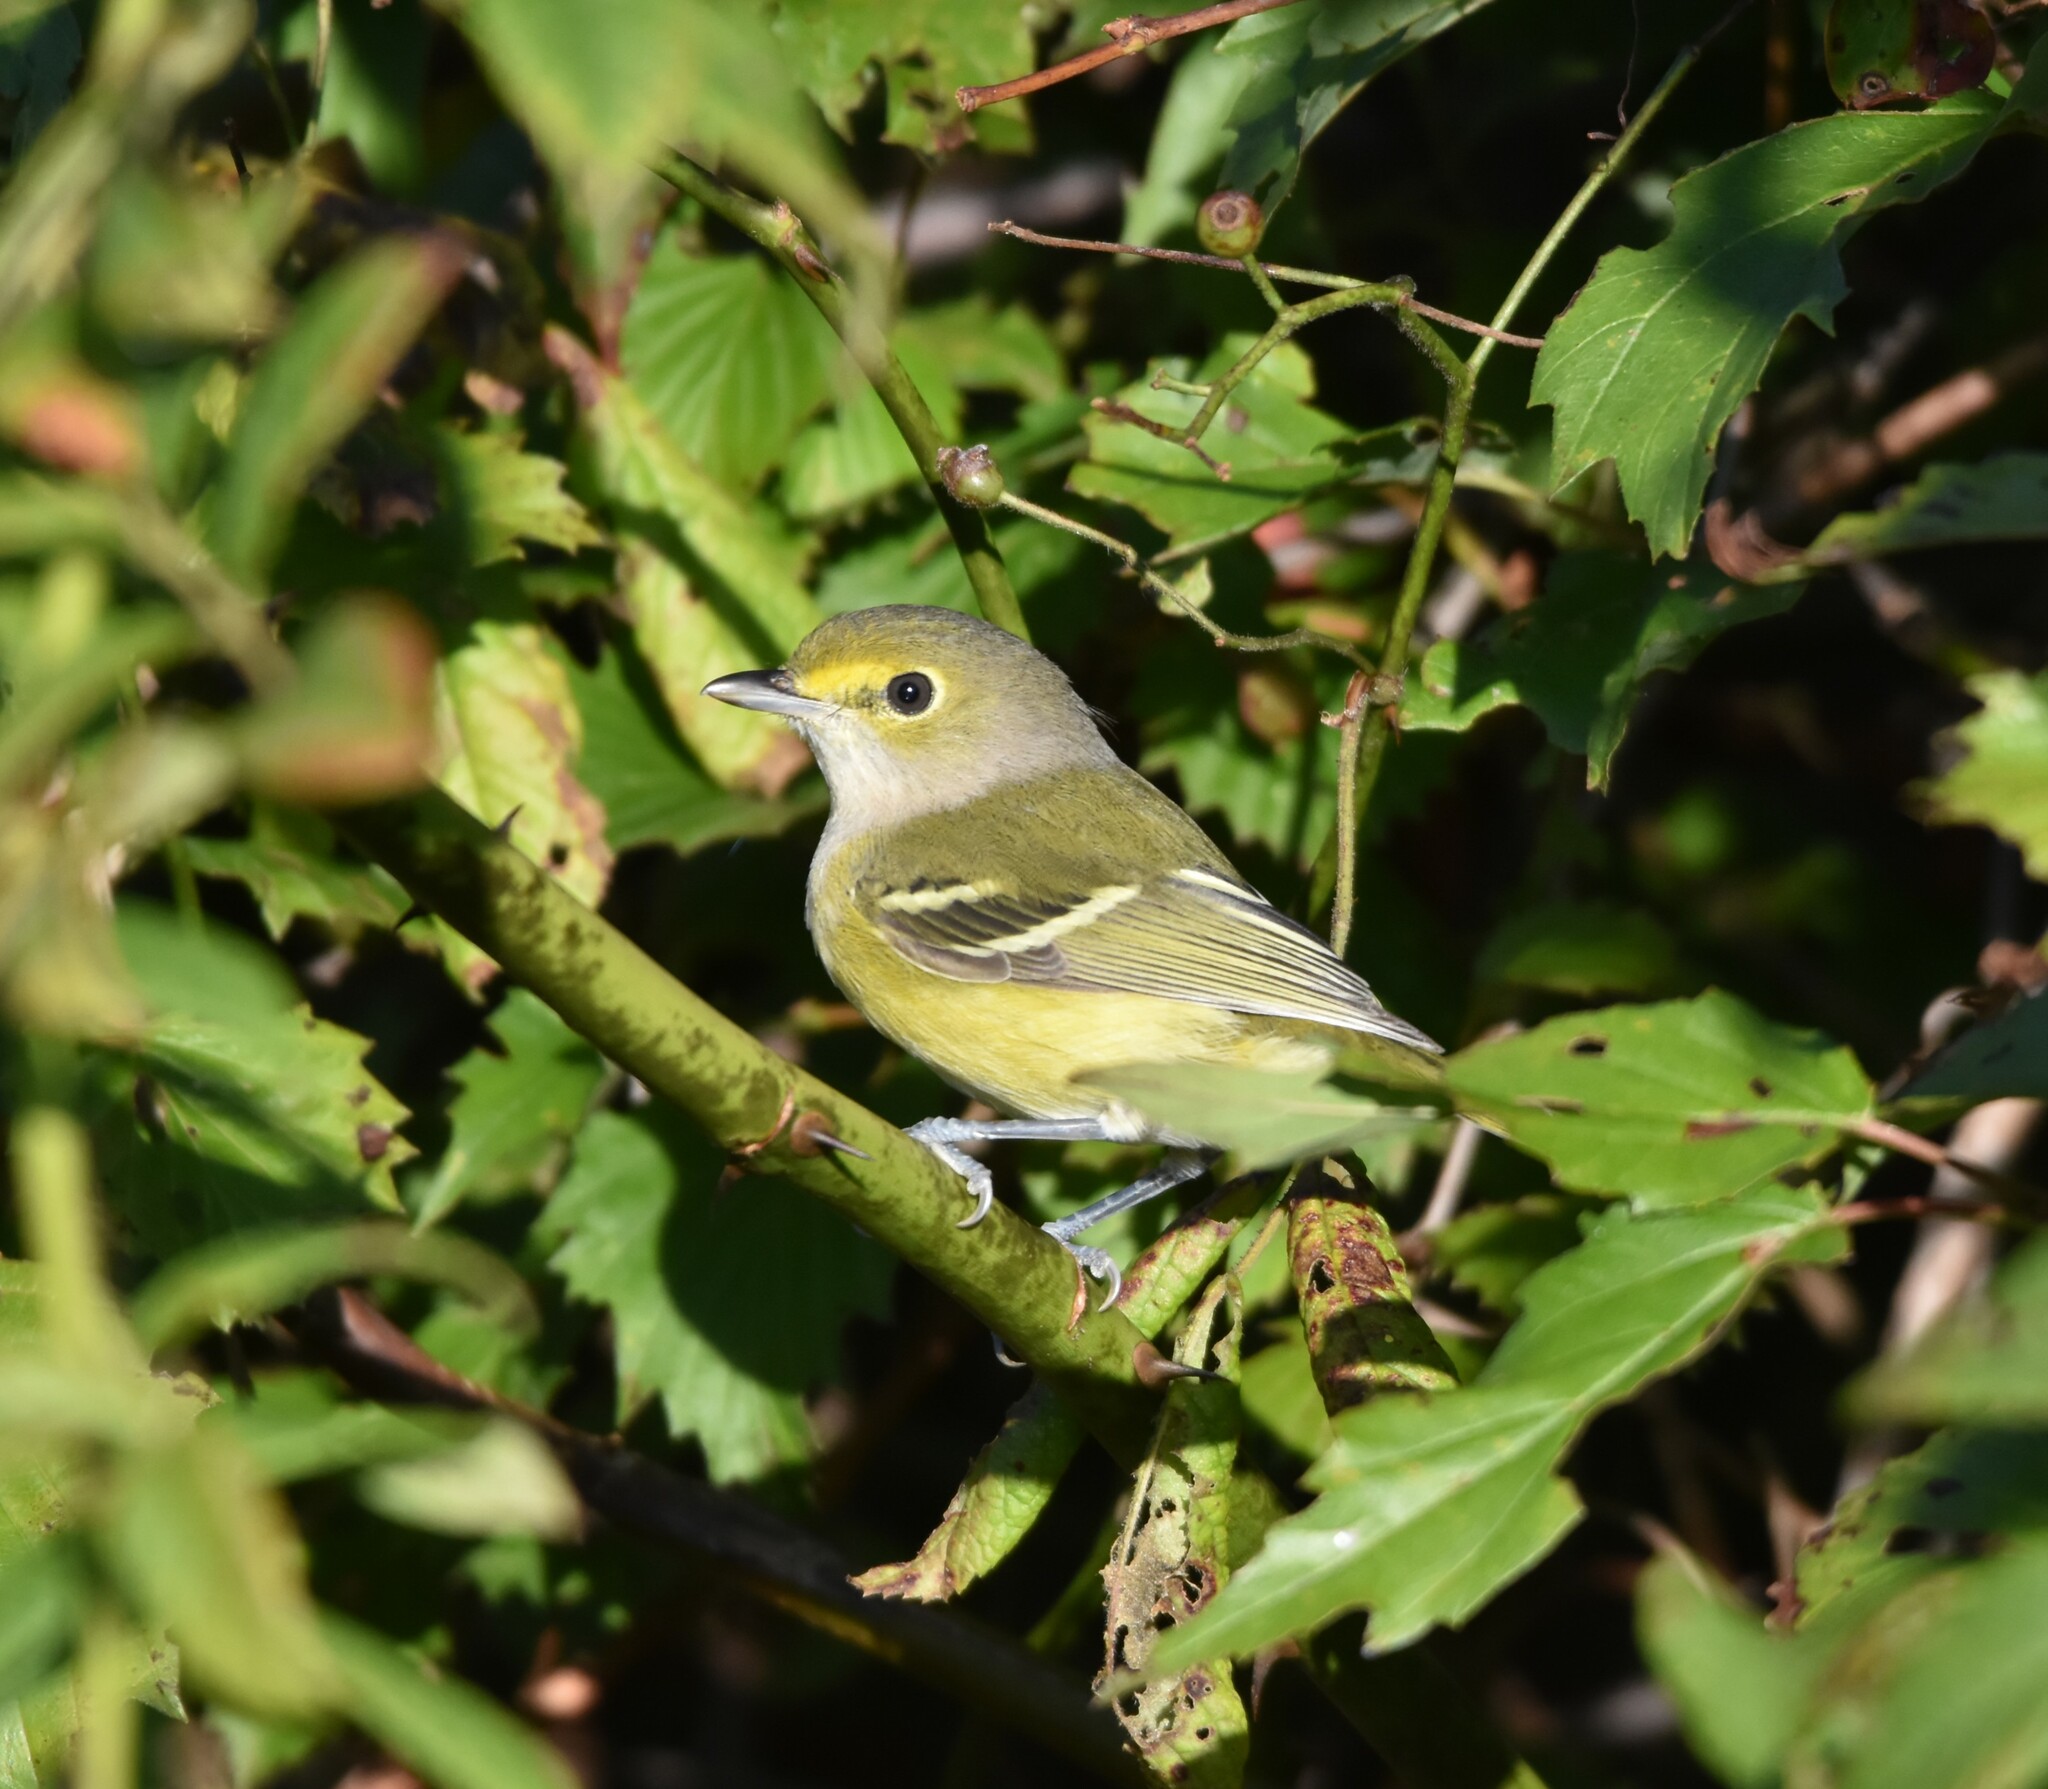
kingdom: Animalia
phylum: Chordata
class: Aves
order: Passeriformes
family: Vireonidae
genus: Vireo
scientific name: Vireo griseus
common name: White-eyed vireo
